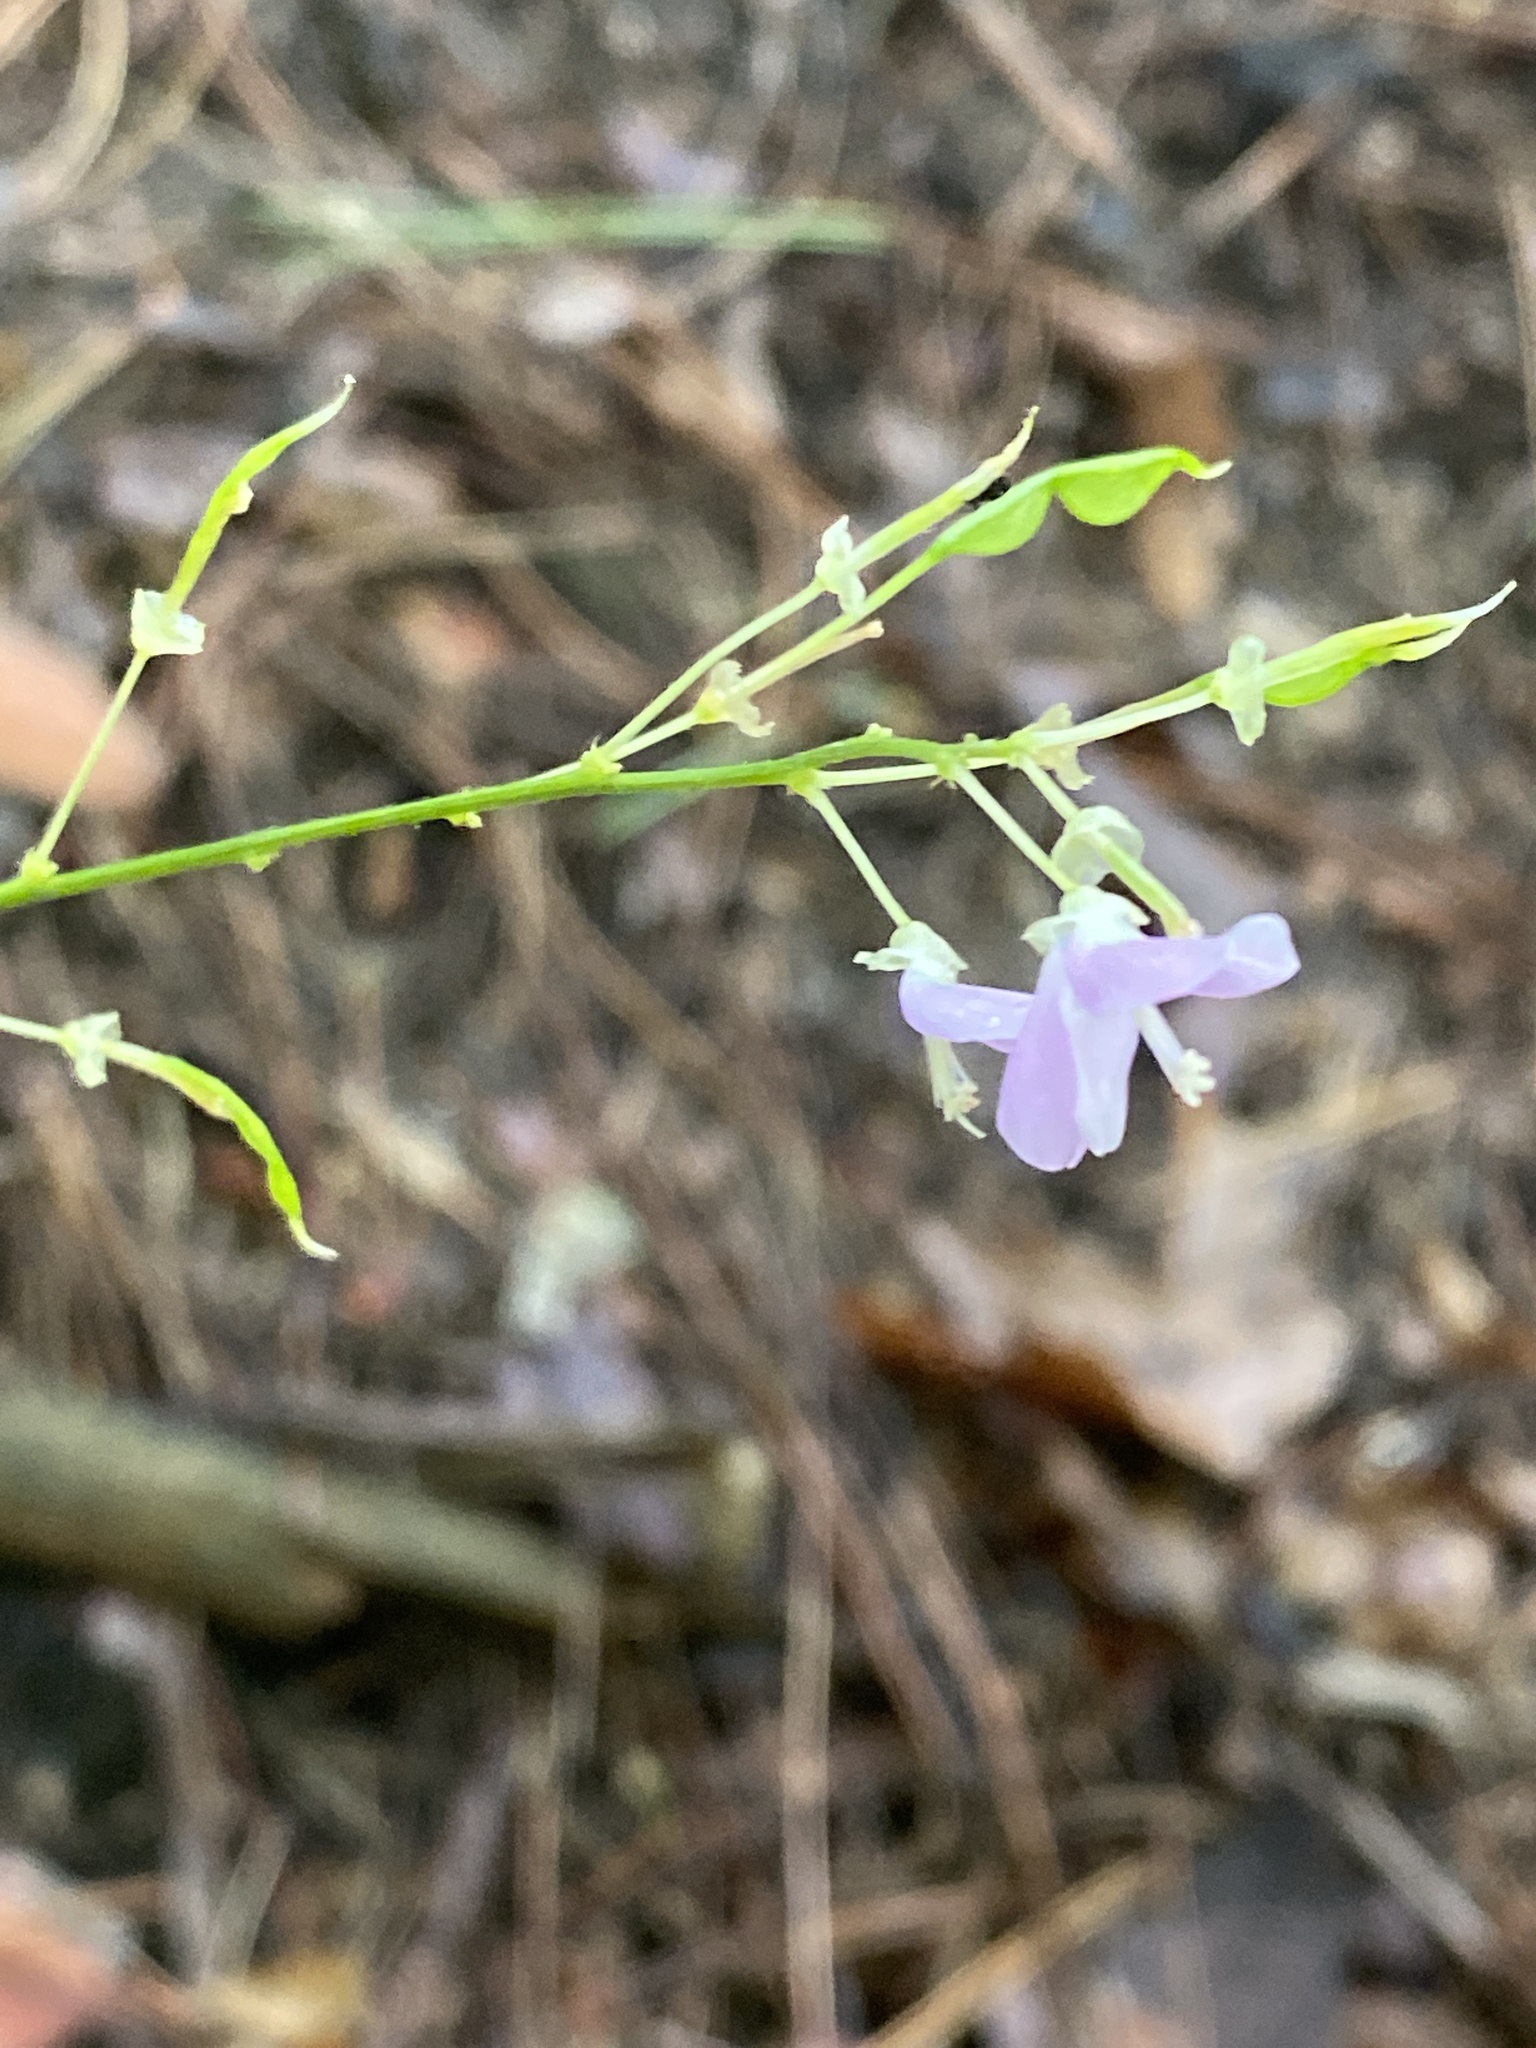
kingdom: Plantae
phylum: Tracheophyta
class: Magnoliopsida
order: Fabales
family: Fabaceae
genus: Hylodesmum
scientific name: Hylodesmum nudiflorum
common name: Bare-stemmed tick-trefoil
